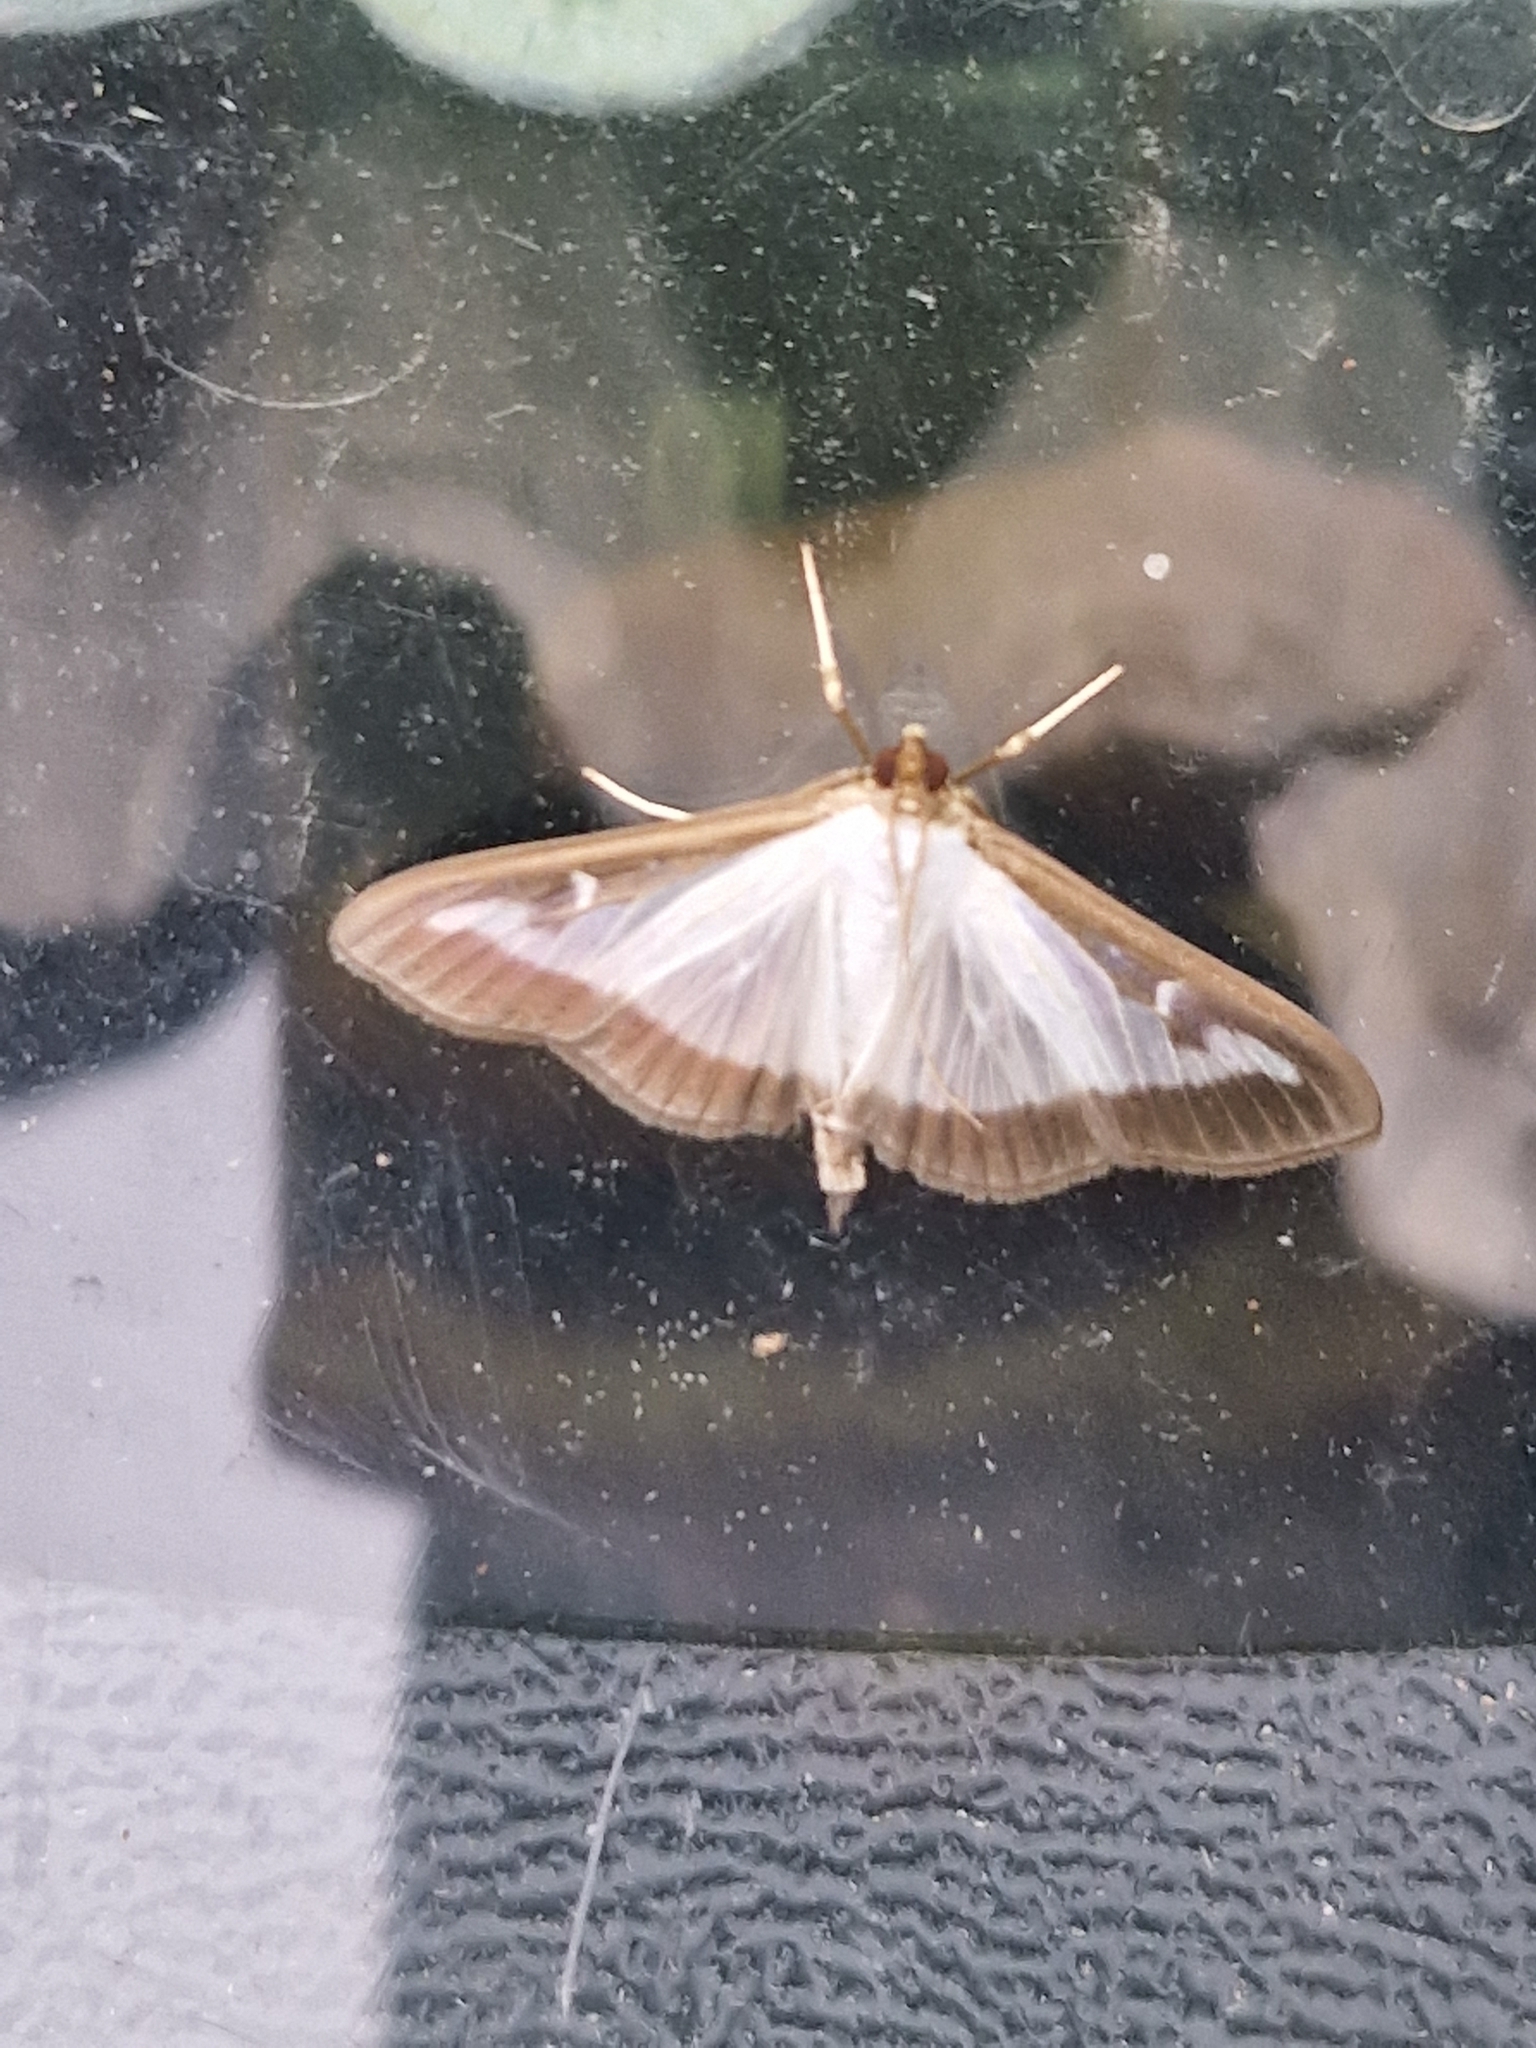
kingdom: Animalia
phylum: Arthropoda
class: Insecta
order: Lepidoptera
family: Crambidae
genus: Cydalima
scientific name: Cydalima perspectalis
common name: Box tree moth
